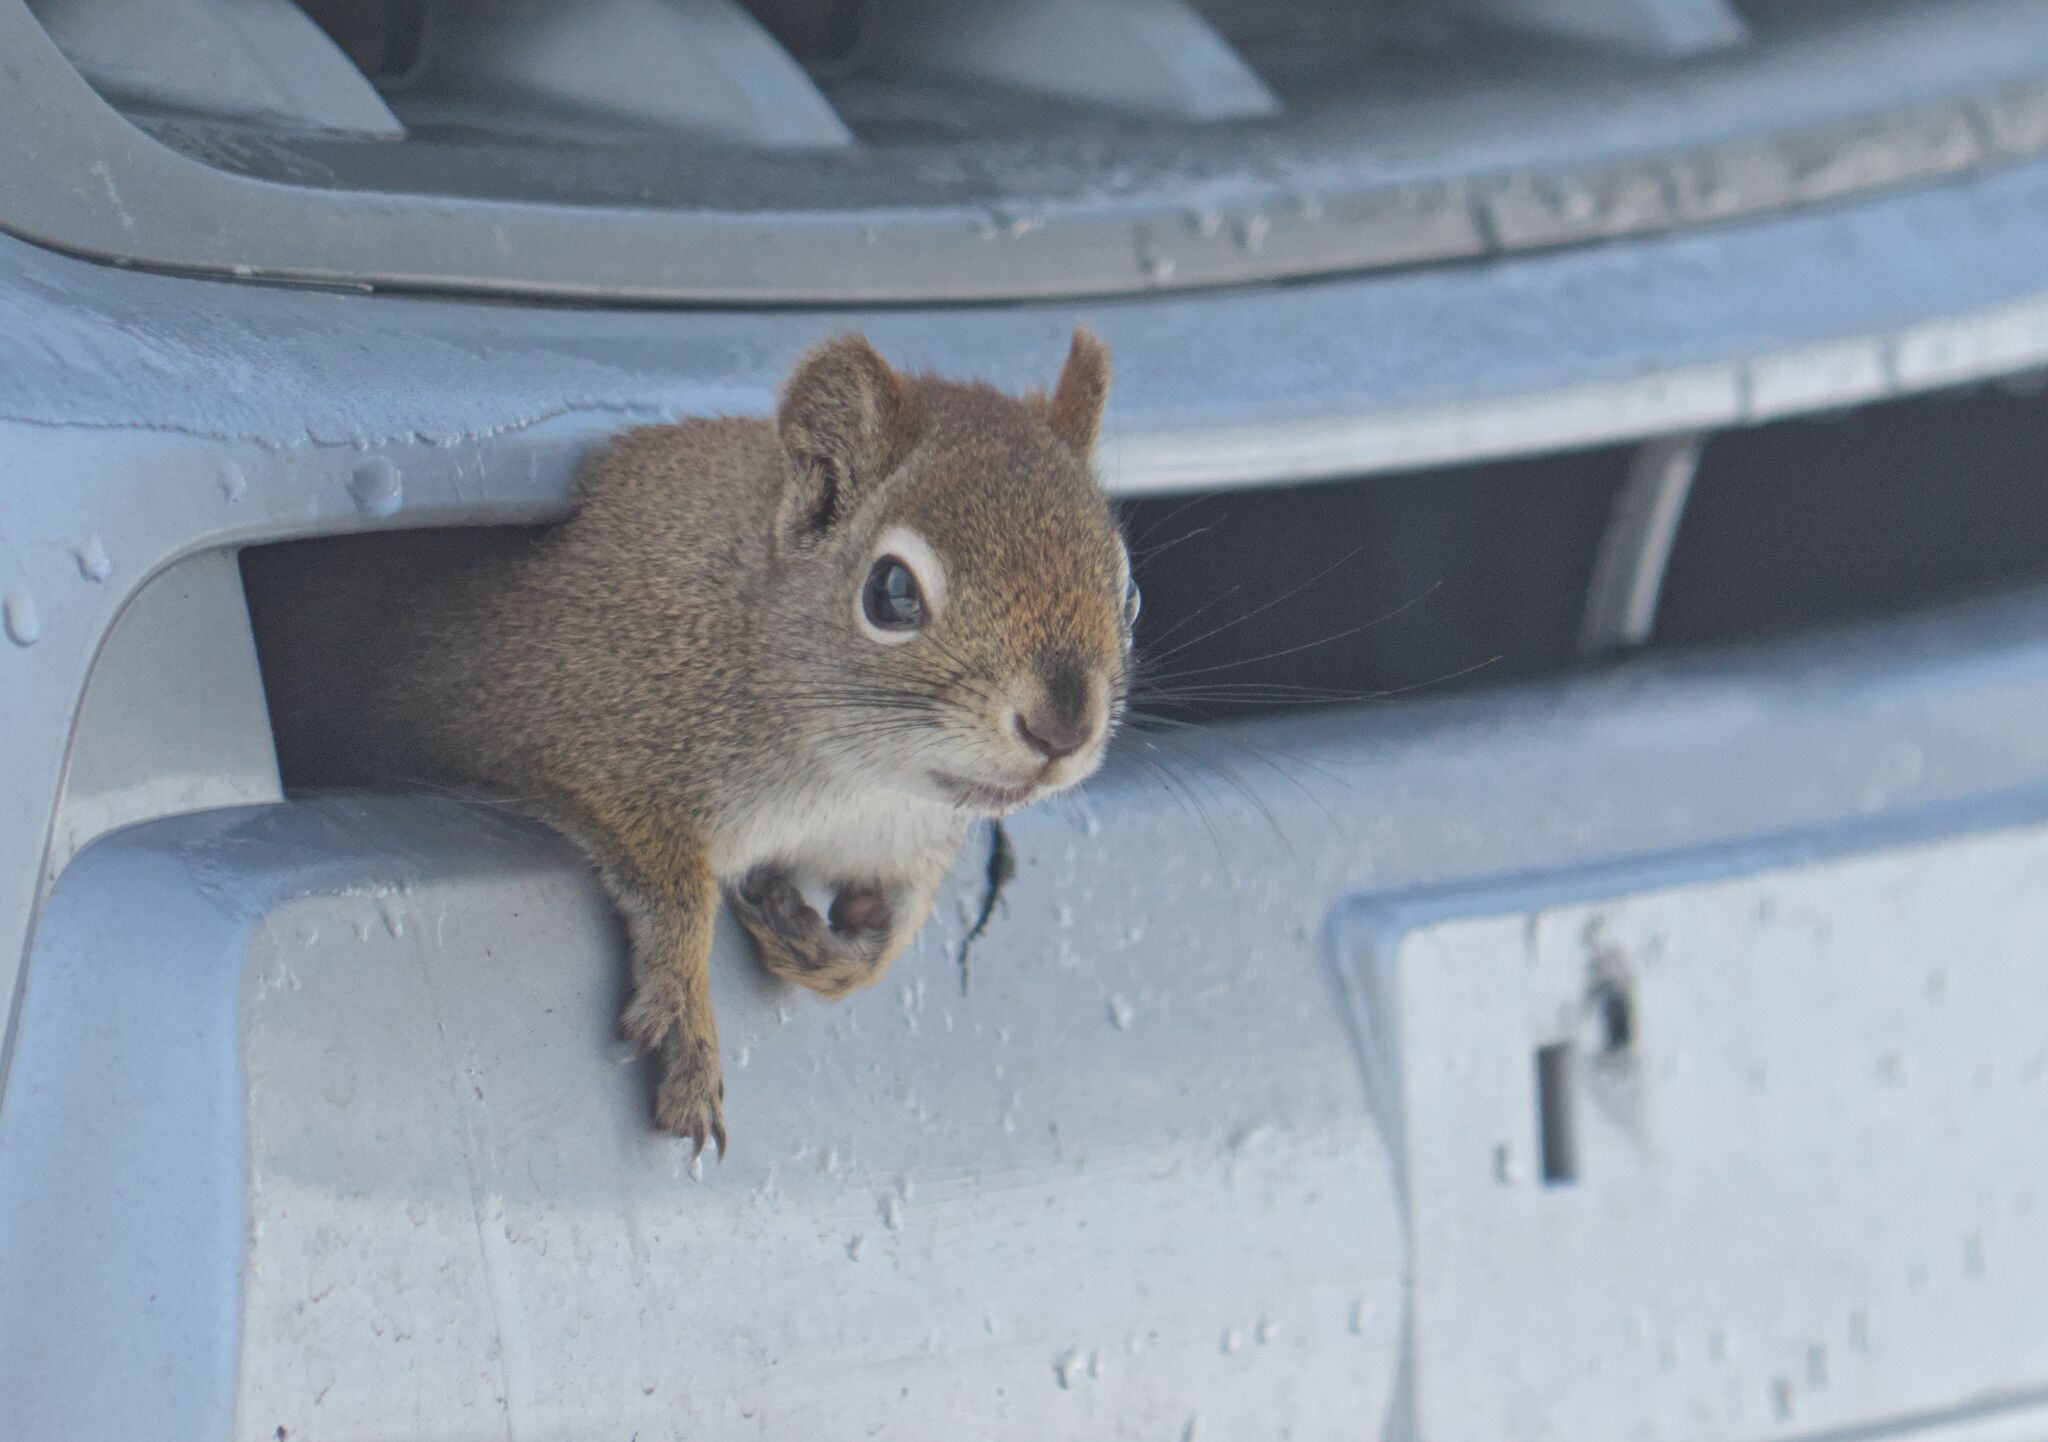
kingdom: Animalia
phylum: Chordata
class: Mammalia
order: Rodentia
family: Sciuridae
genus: Tamiasciurus
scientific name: Tamiasciurus hudsonicus
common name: Red squirrel
